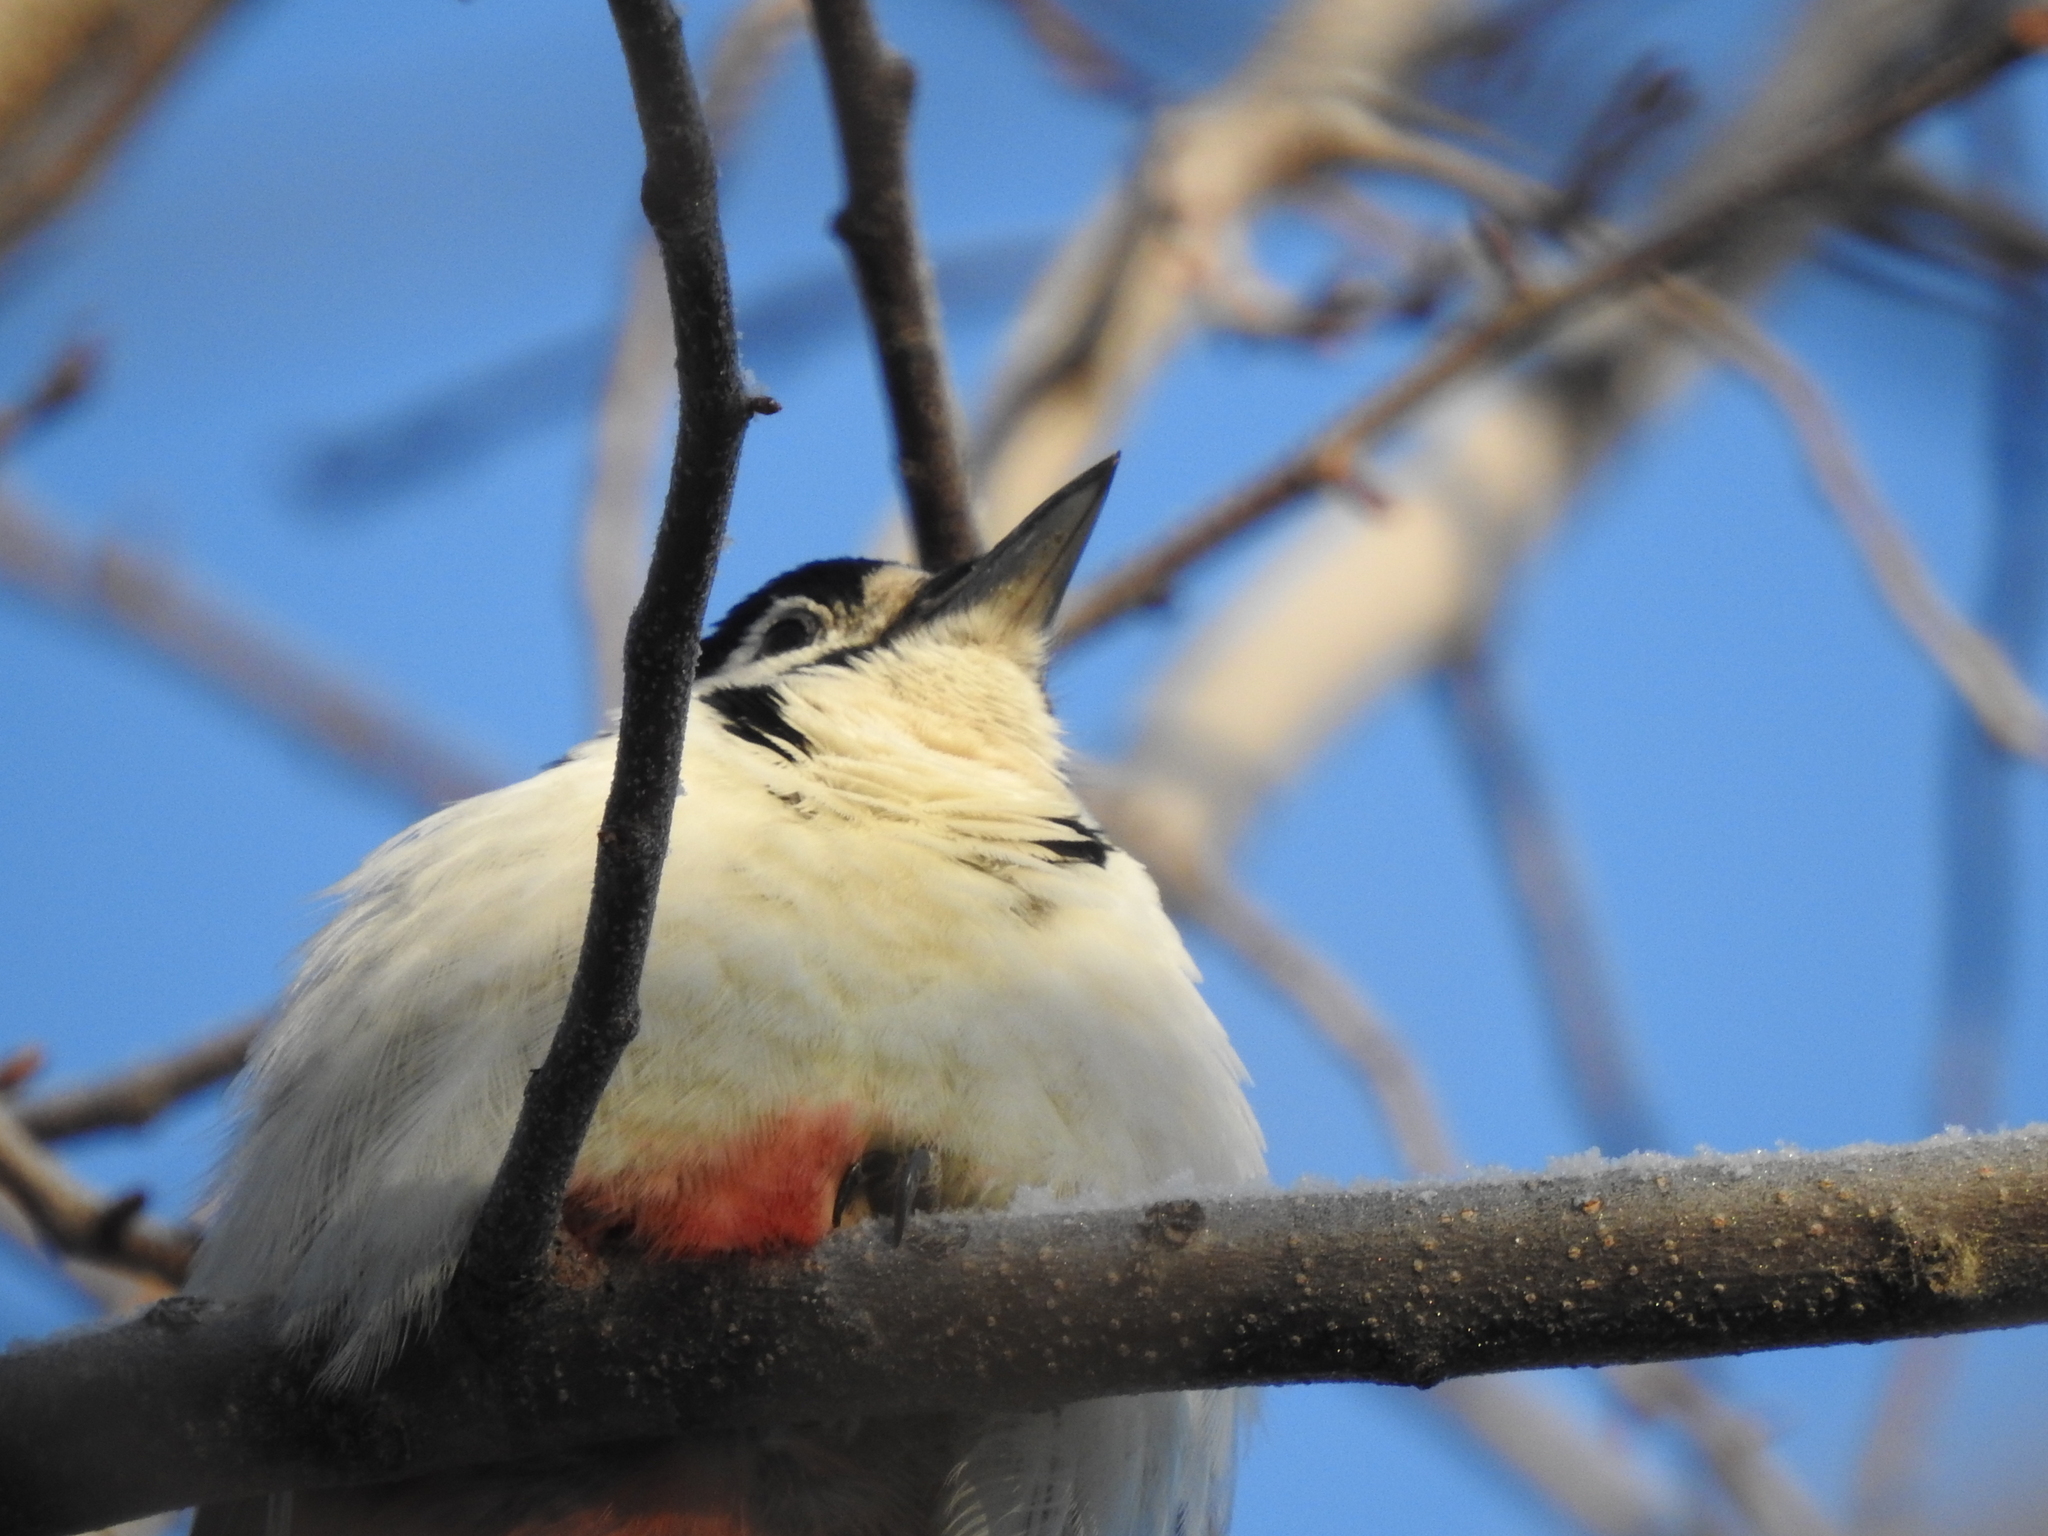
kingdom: Animalia
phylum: Chordata
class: Aves
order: Piciformes
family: Picidae
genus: Dendrocopos
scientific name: Dendrocopos major
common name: Great spotted woodpecker
